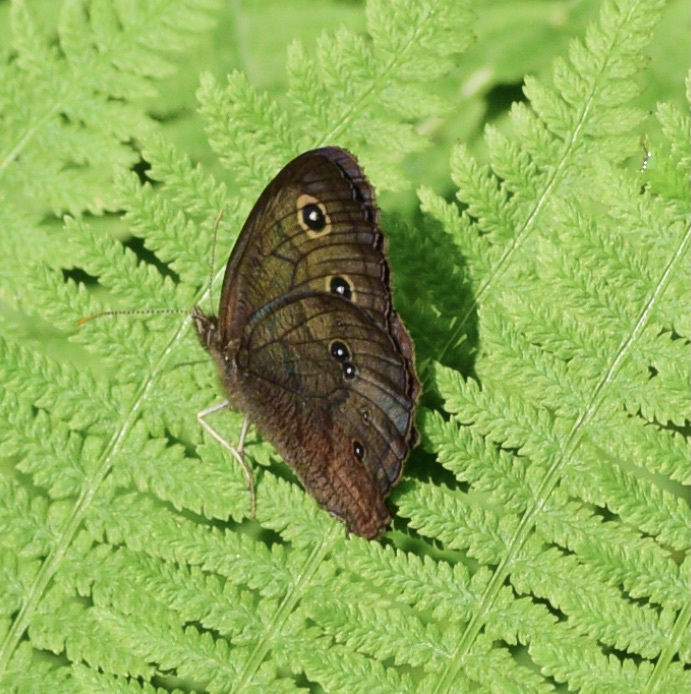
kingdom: Animalia
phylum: Arthropoda
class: Insecta
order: Lepidoptera
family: Nymphalidae
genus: Cercyonis
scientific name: Cercyonis pegala
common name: Common wood-nymph
